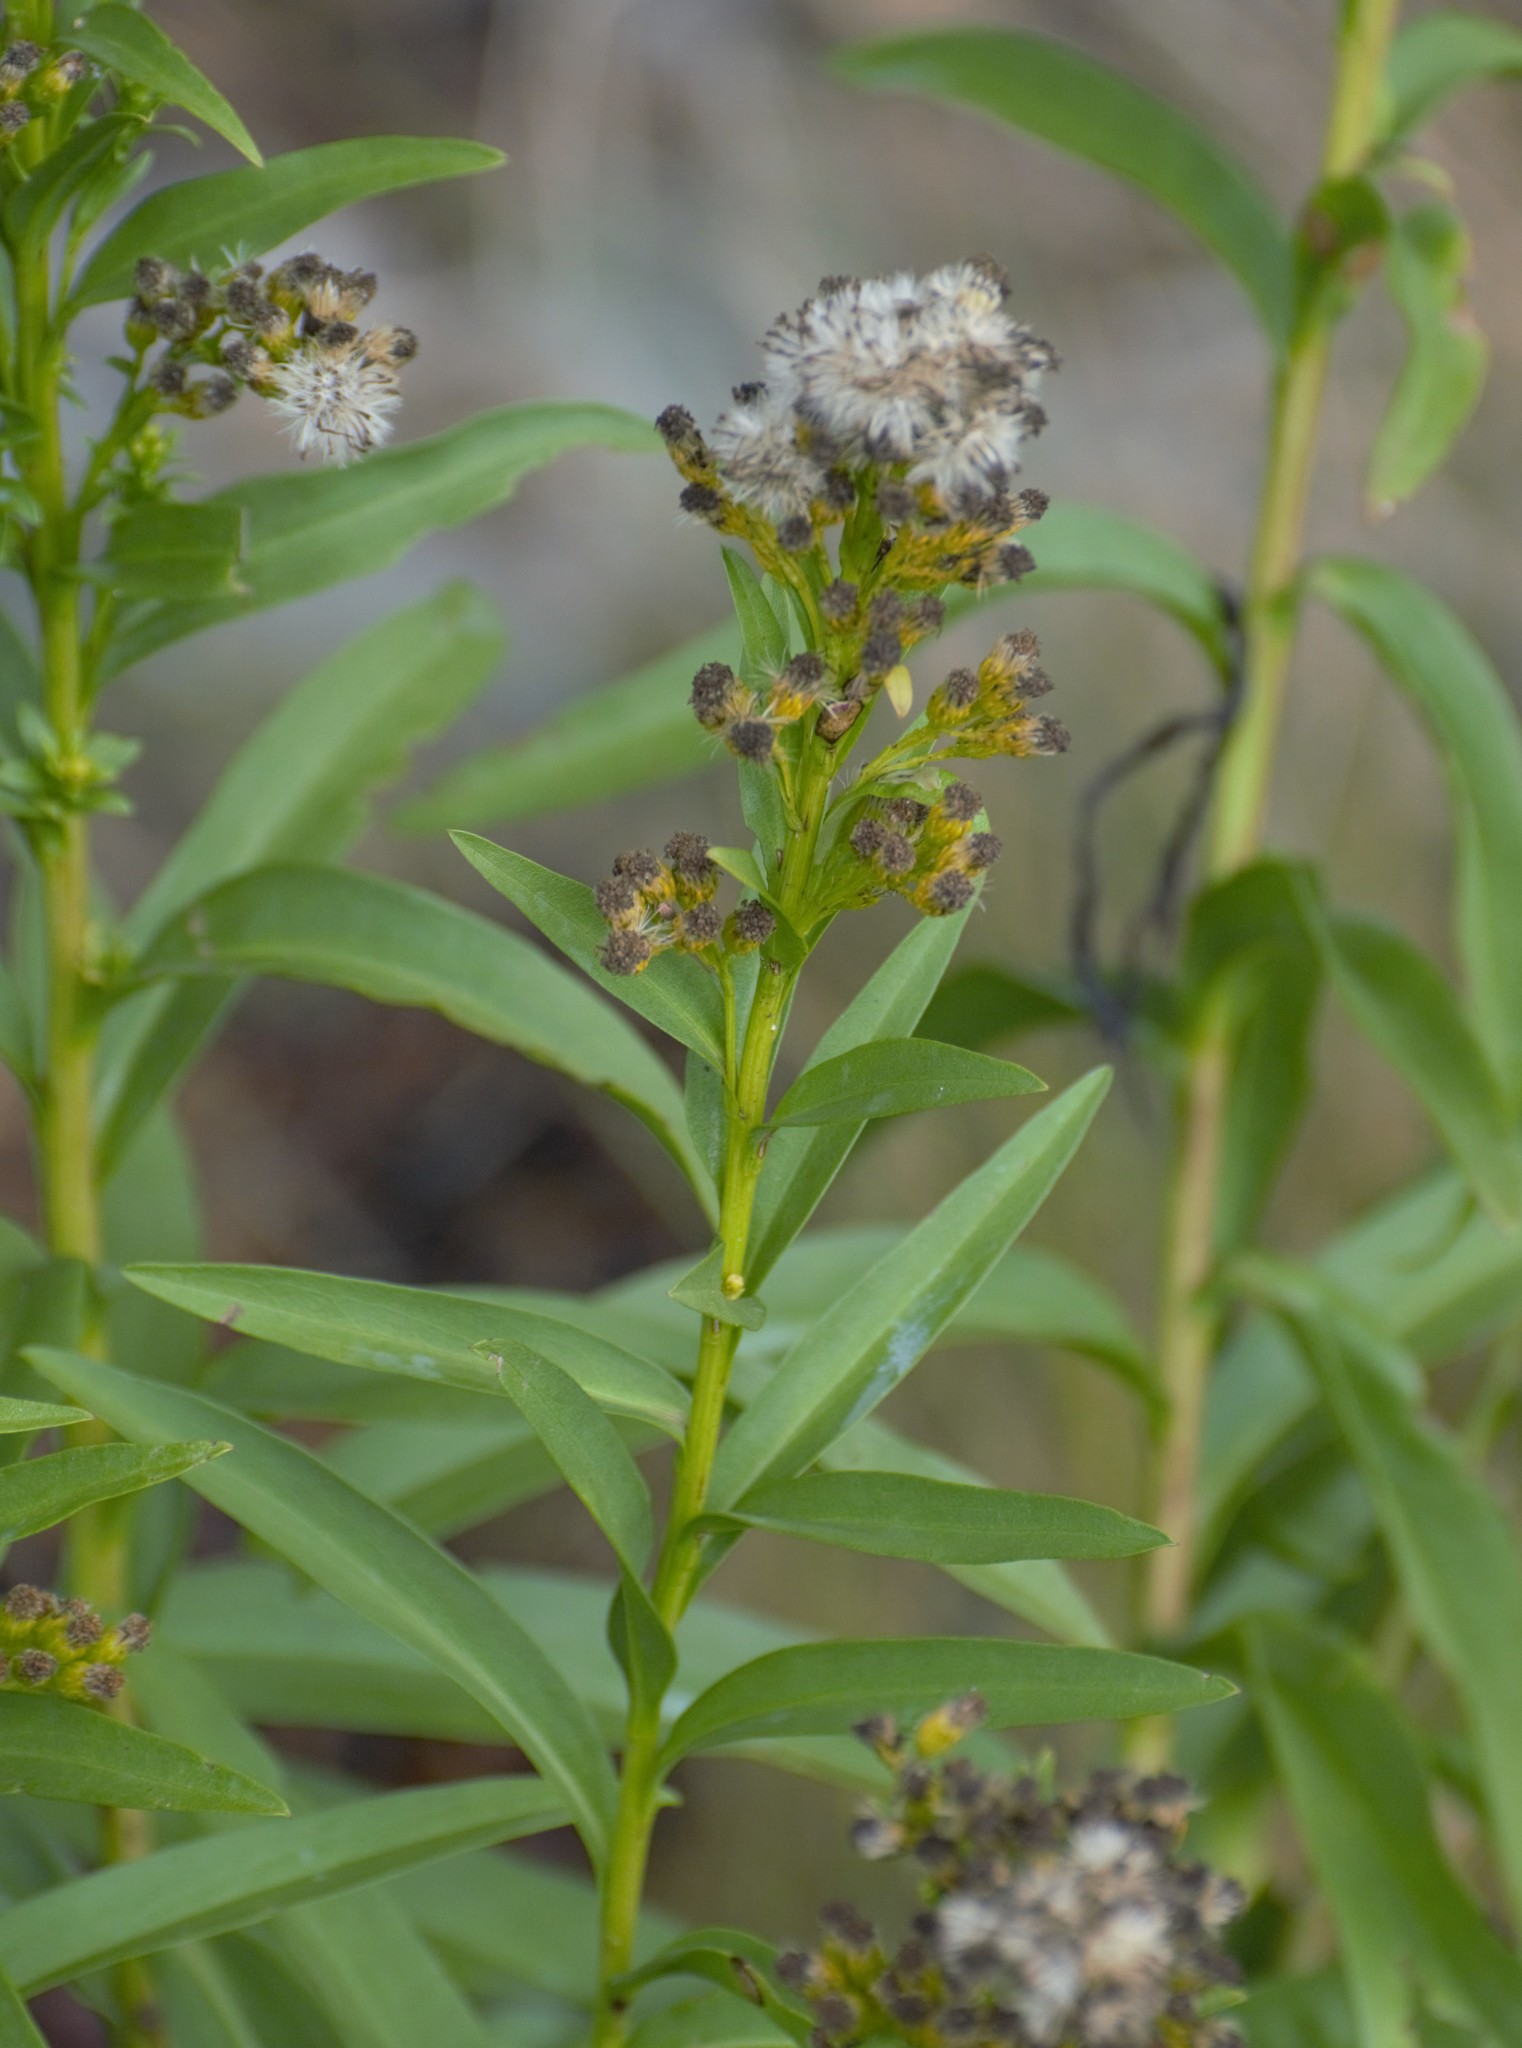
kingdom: Plantae
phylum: Tracheophyta
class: Magnoliopsida
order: Asterales
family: Asteraceae
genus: Solidago
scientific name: Solidago sempervirens
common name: Salt-marsh goldenrod
